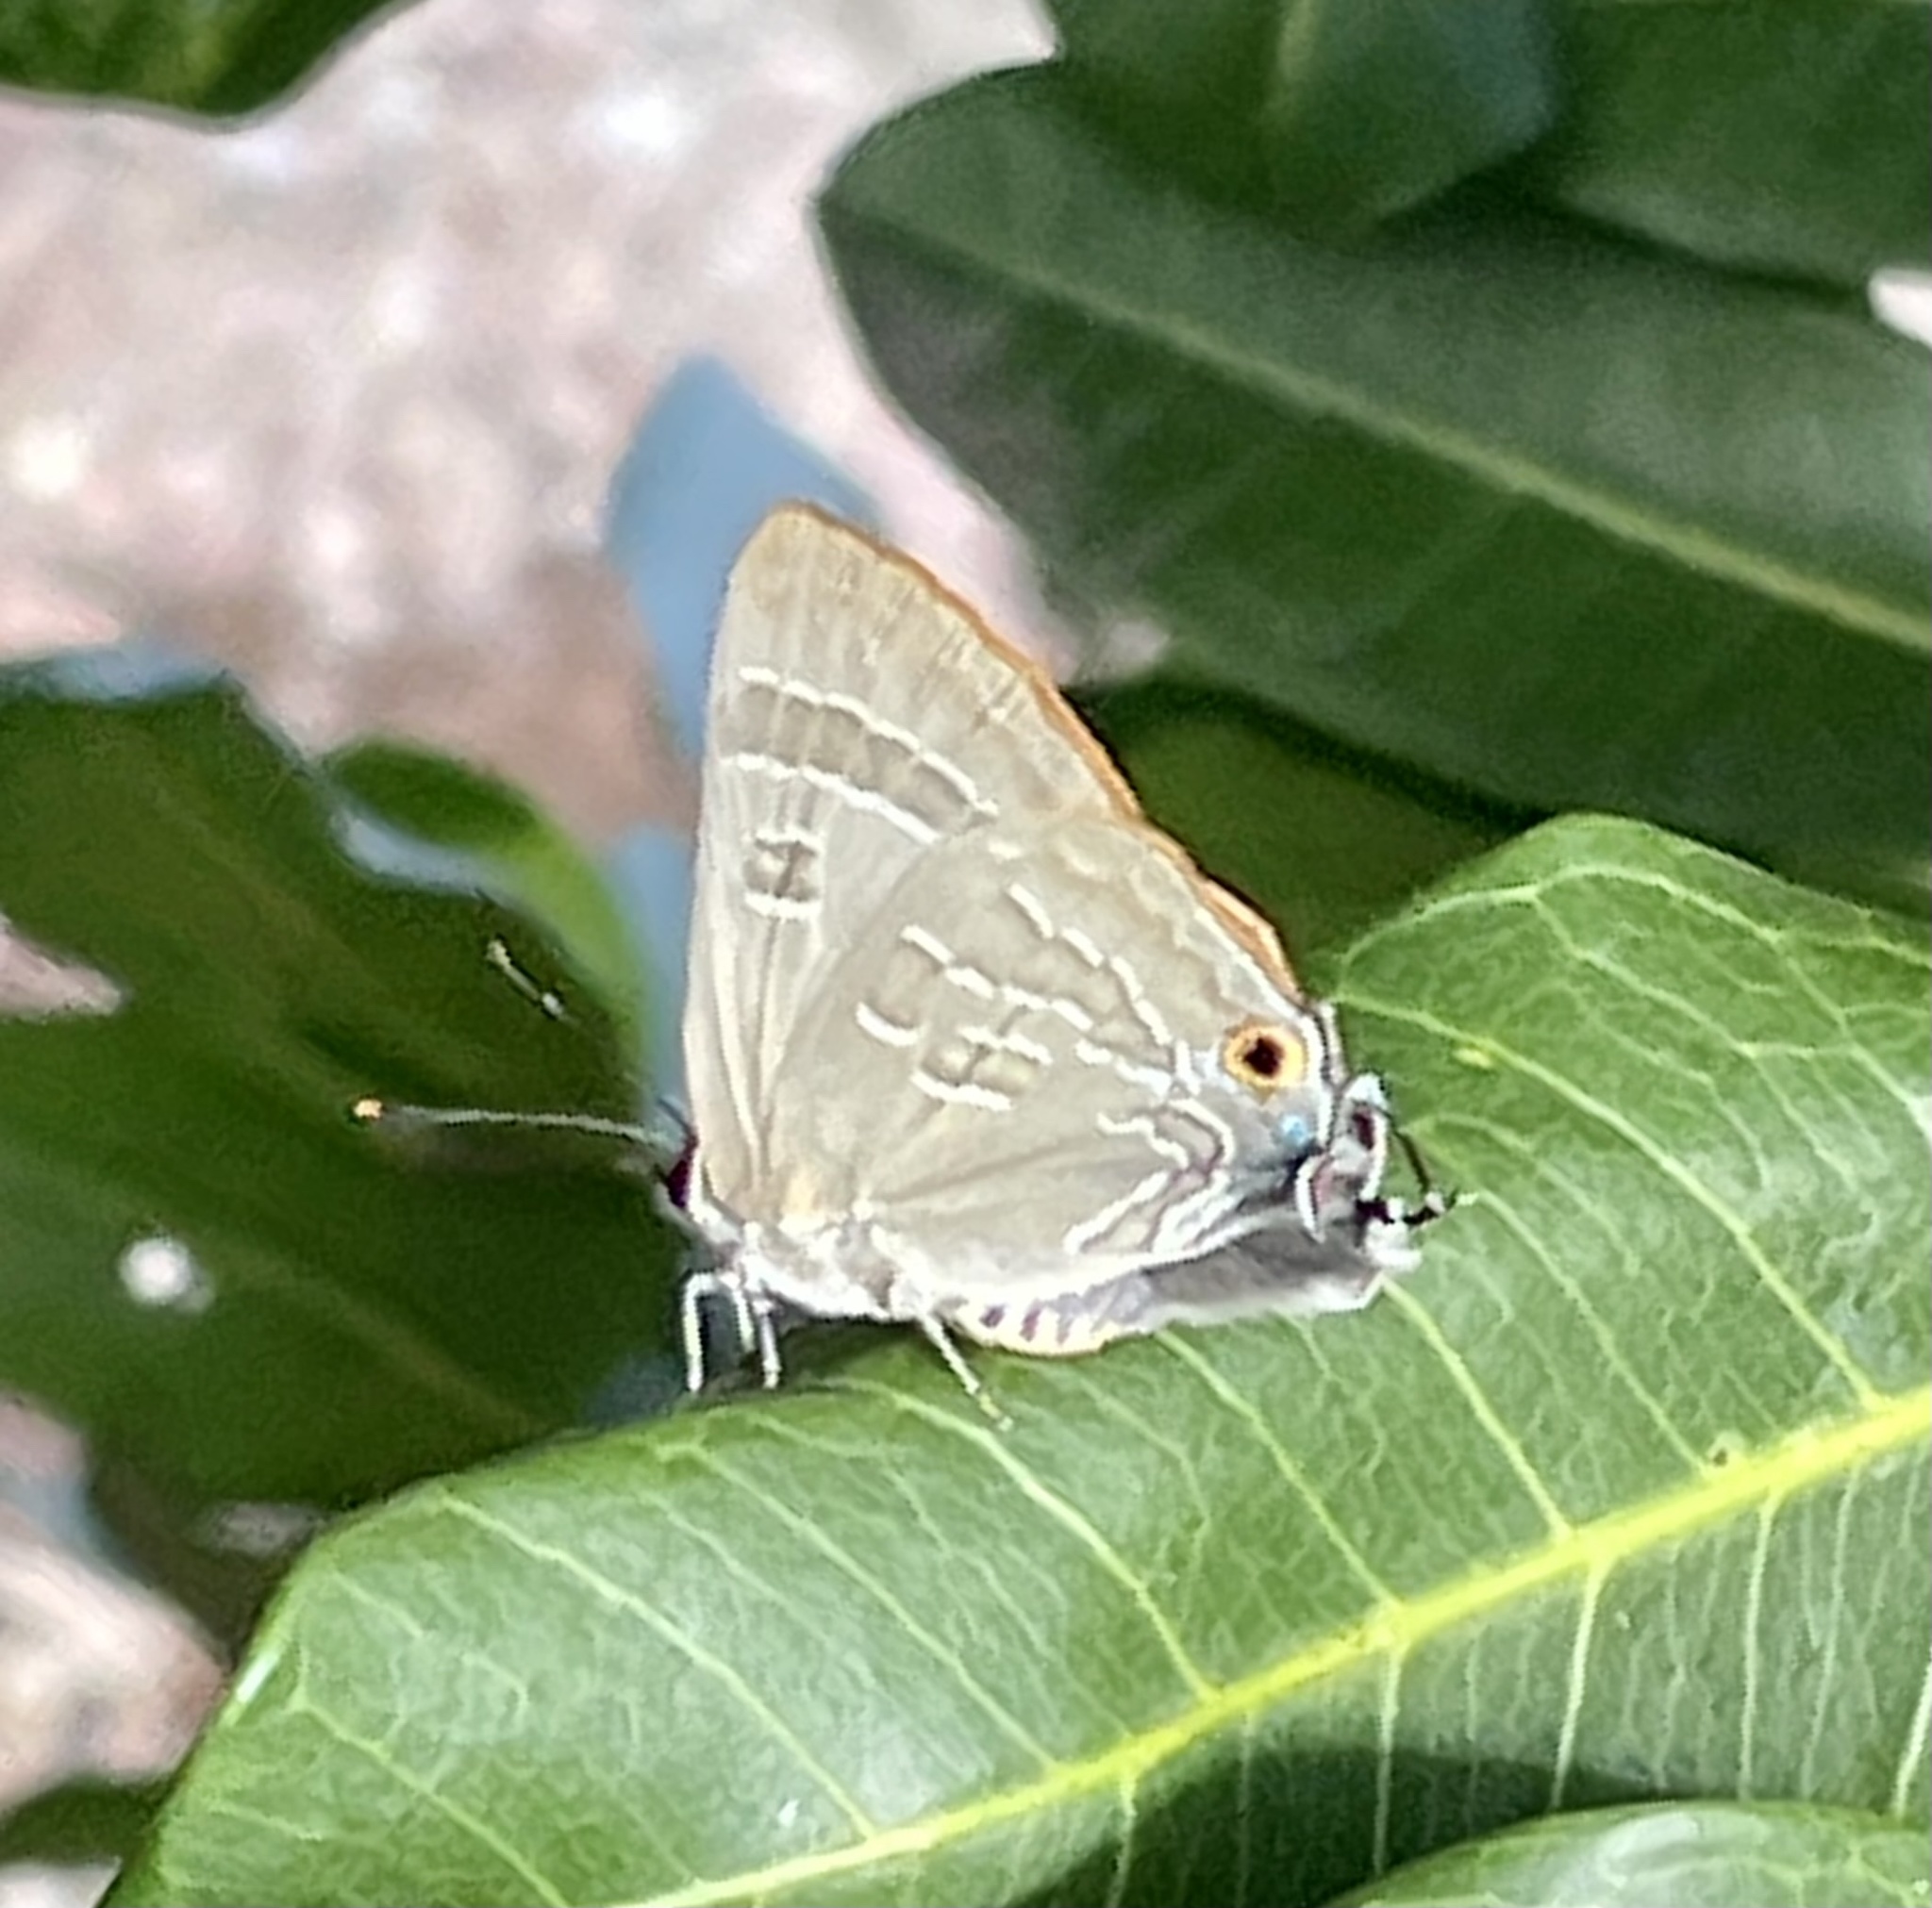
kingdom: Animalia
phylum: Arthropoda
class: Insecta
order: Lepidoptera
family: Lycaenidae
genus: Deudorix
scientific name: Deudorix diovis
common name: Bright cornelian
